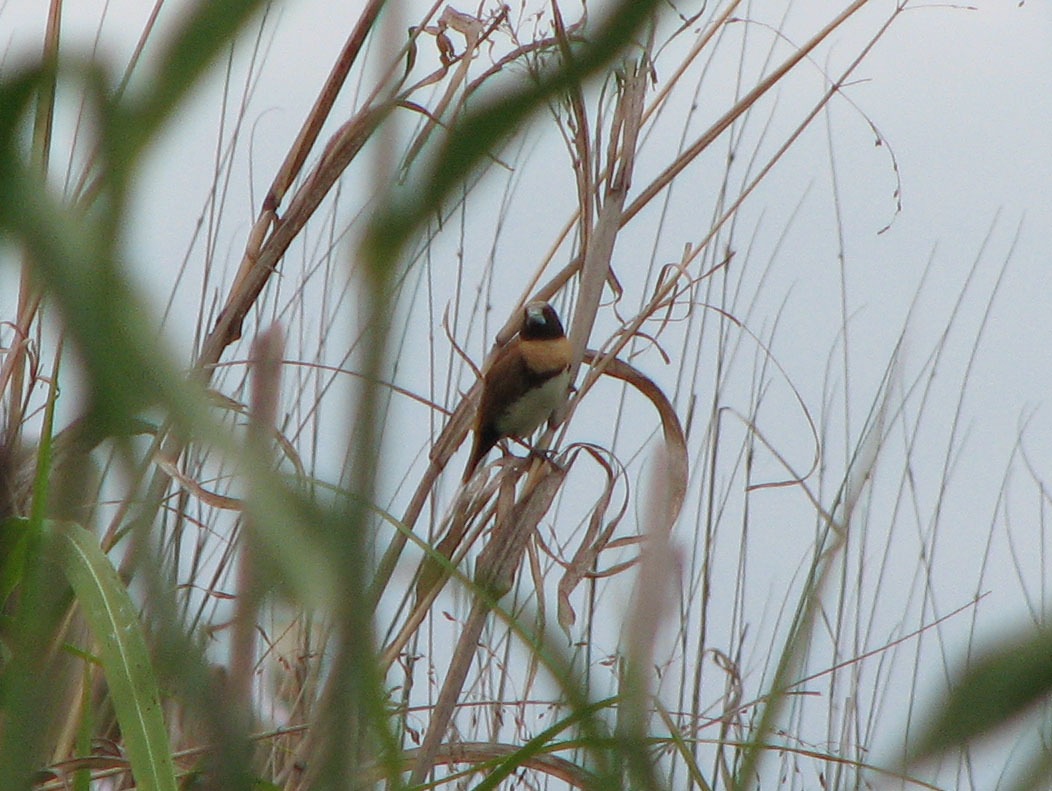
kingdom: Animalia
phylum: Chordata
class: Aves
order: Passeriformes
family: Estrildidae
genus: Lonchura
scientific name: Lonchura castaneothorax
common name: Chestnut-breasted mannikin
